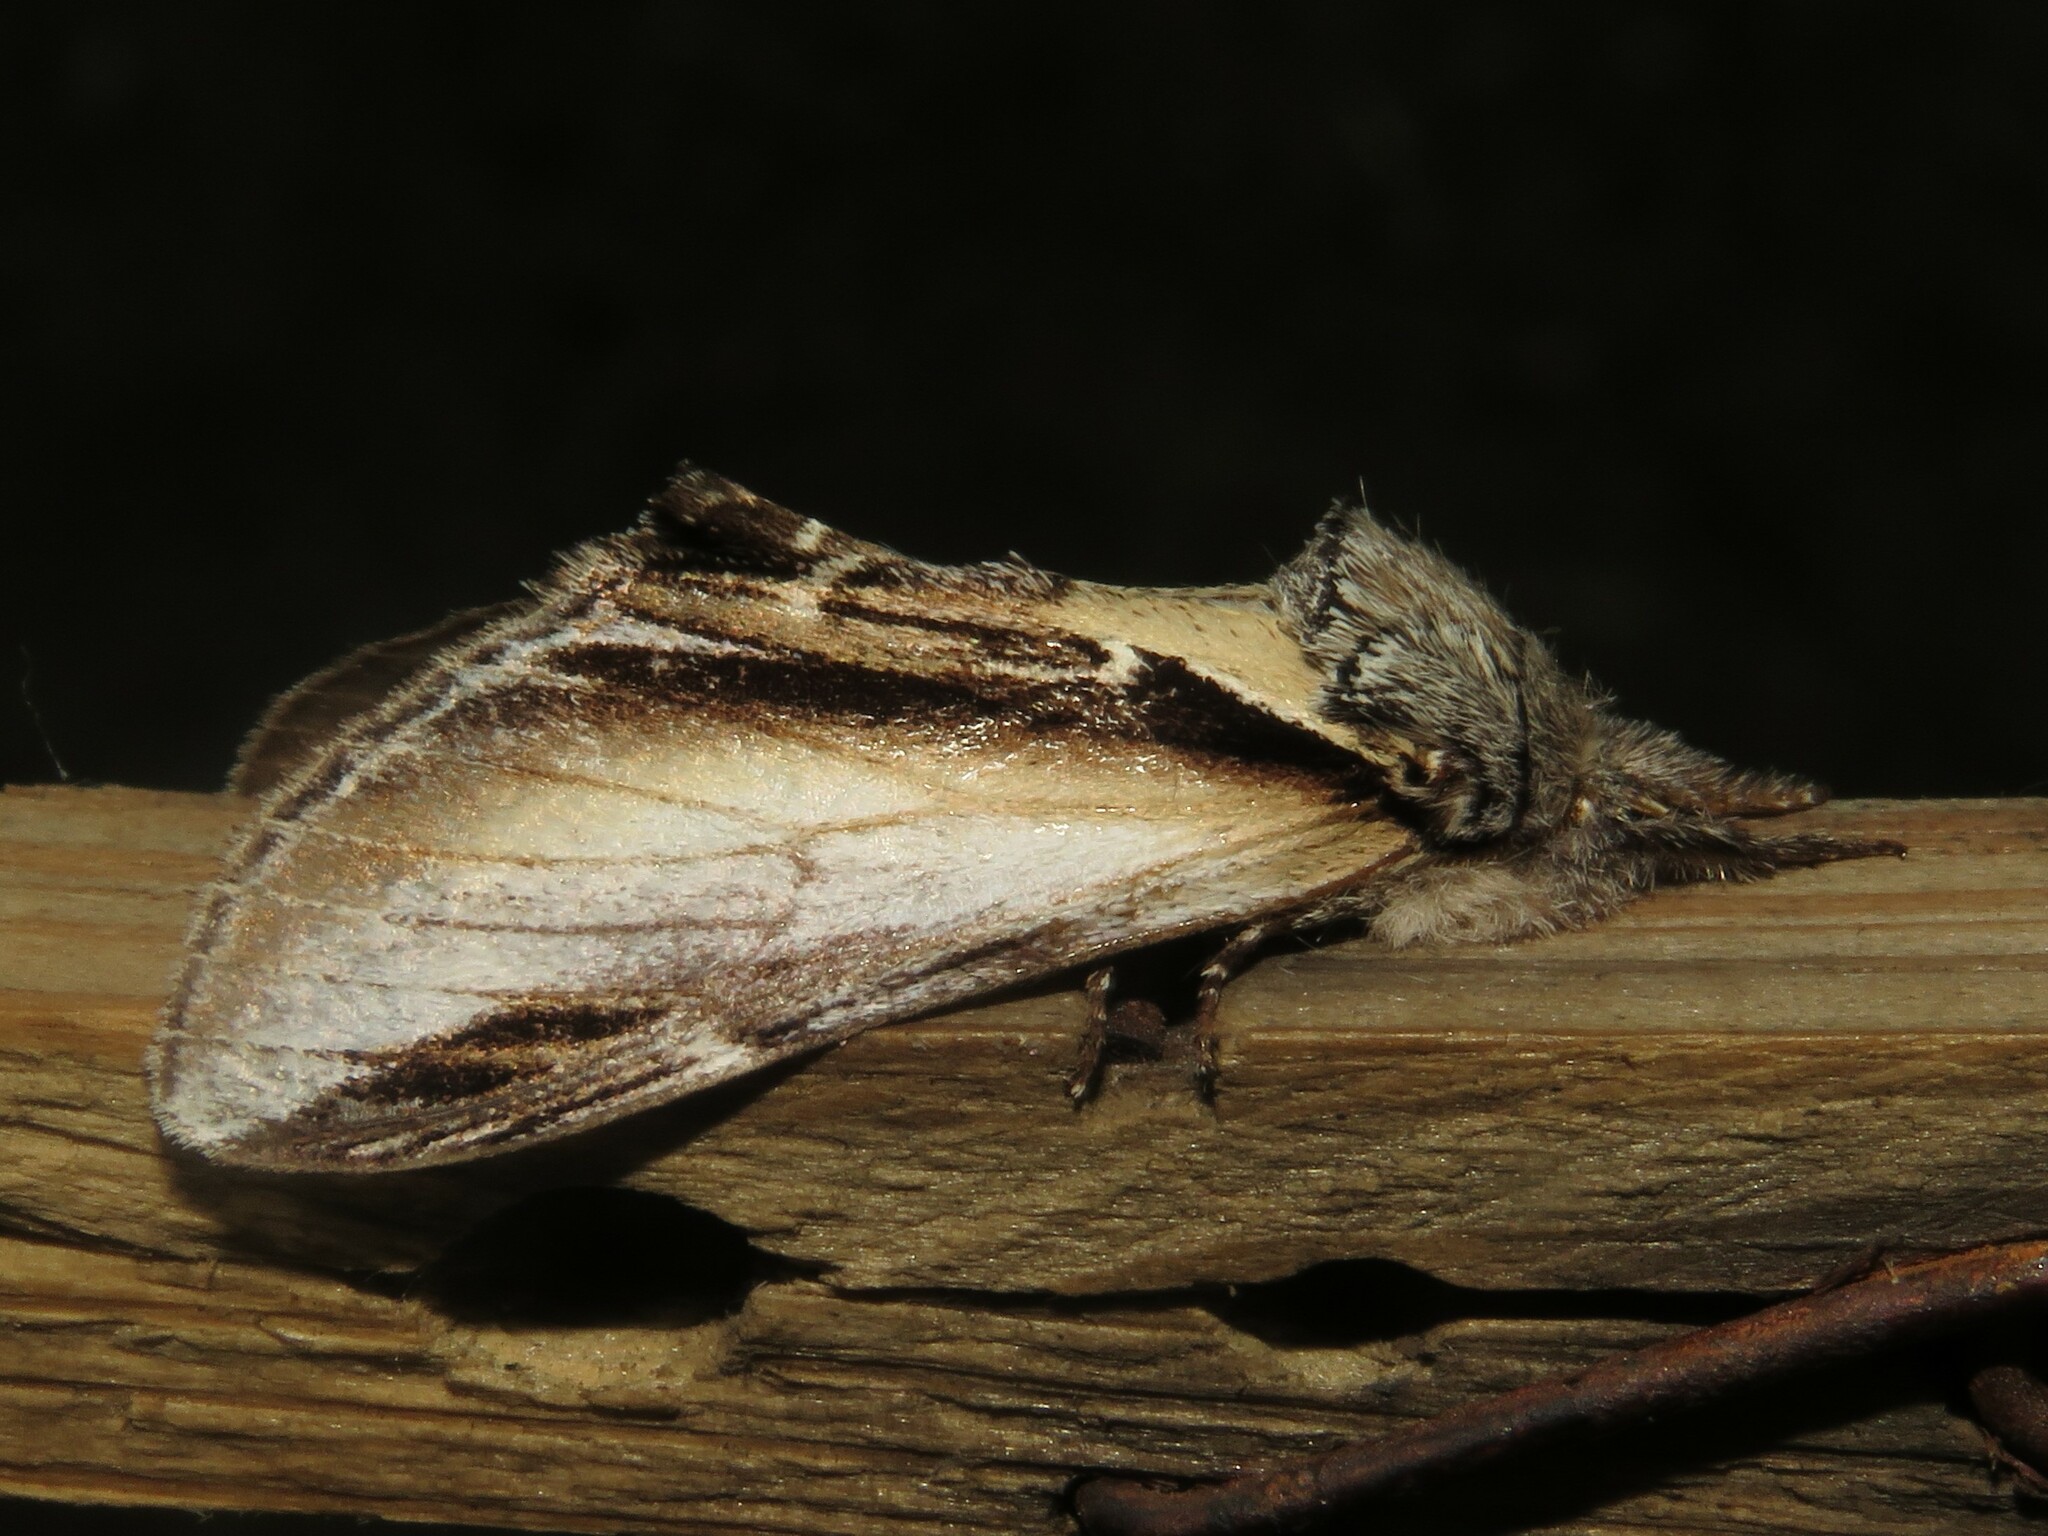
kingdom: Animalia
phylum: Arthropoda
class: Insecta
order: Lepidoptera
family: Notodontidae
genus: Pheosia
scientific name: Pheosia rimosa
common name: Black-rimmed prominent
